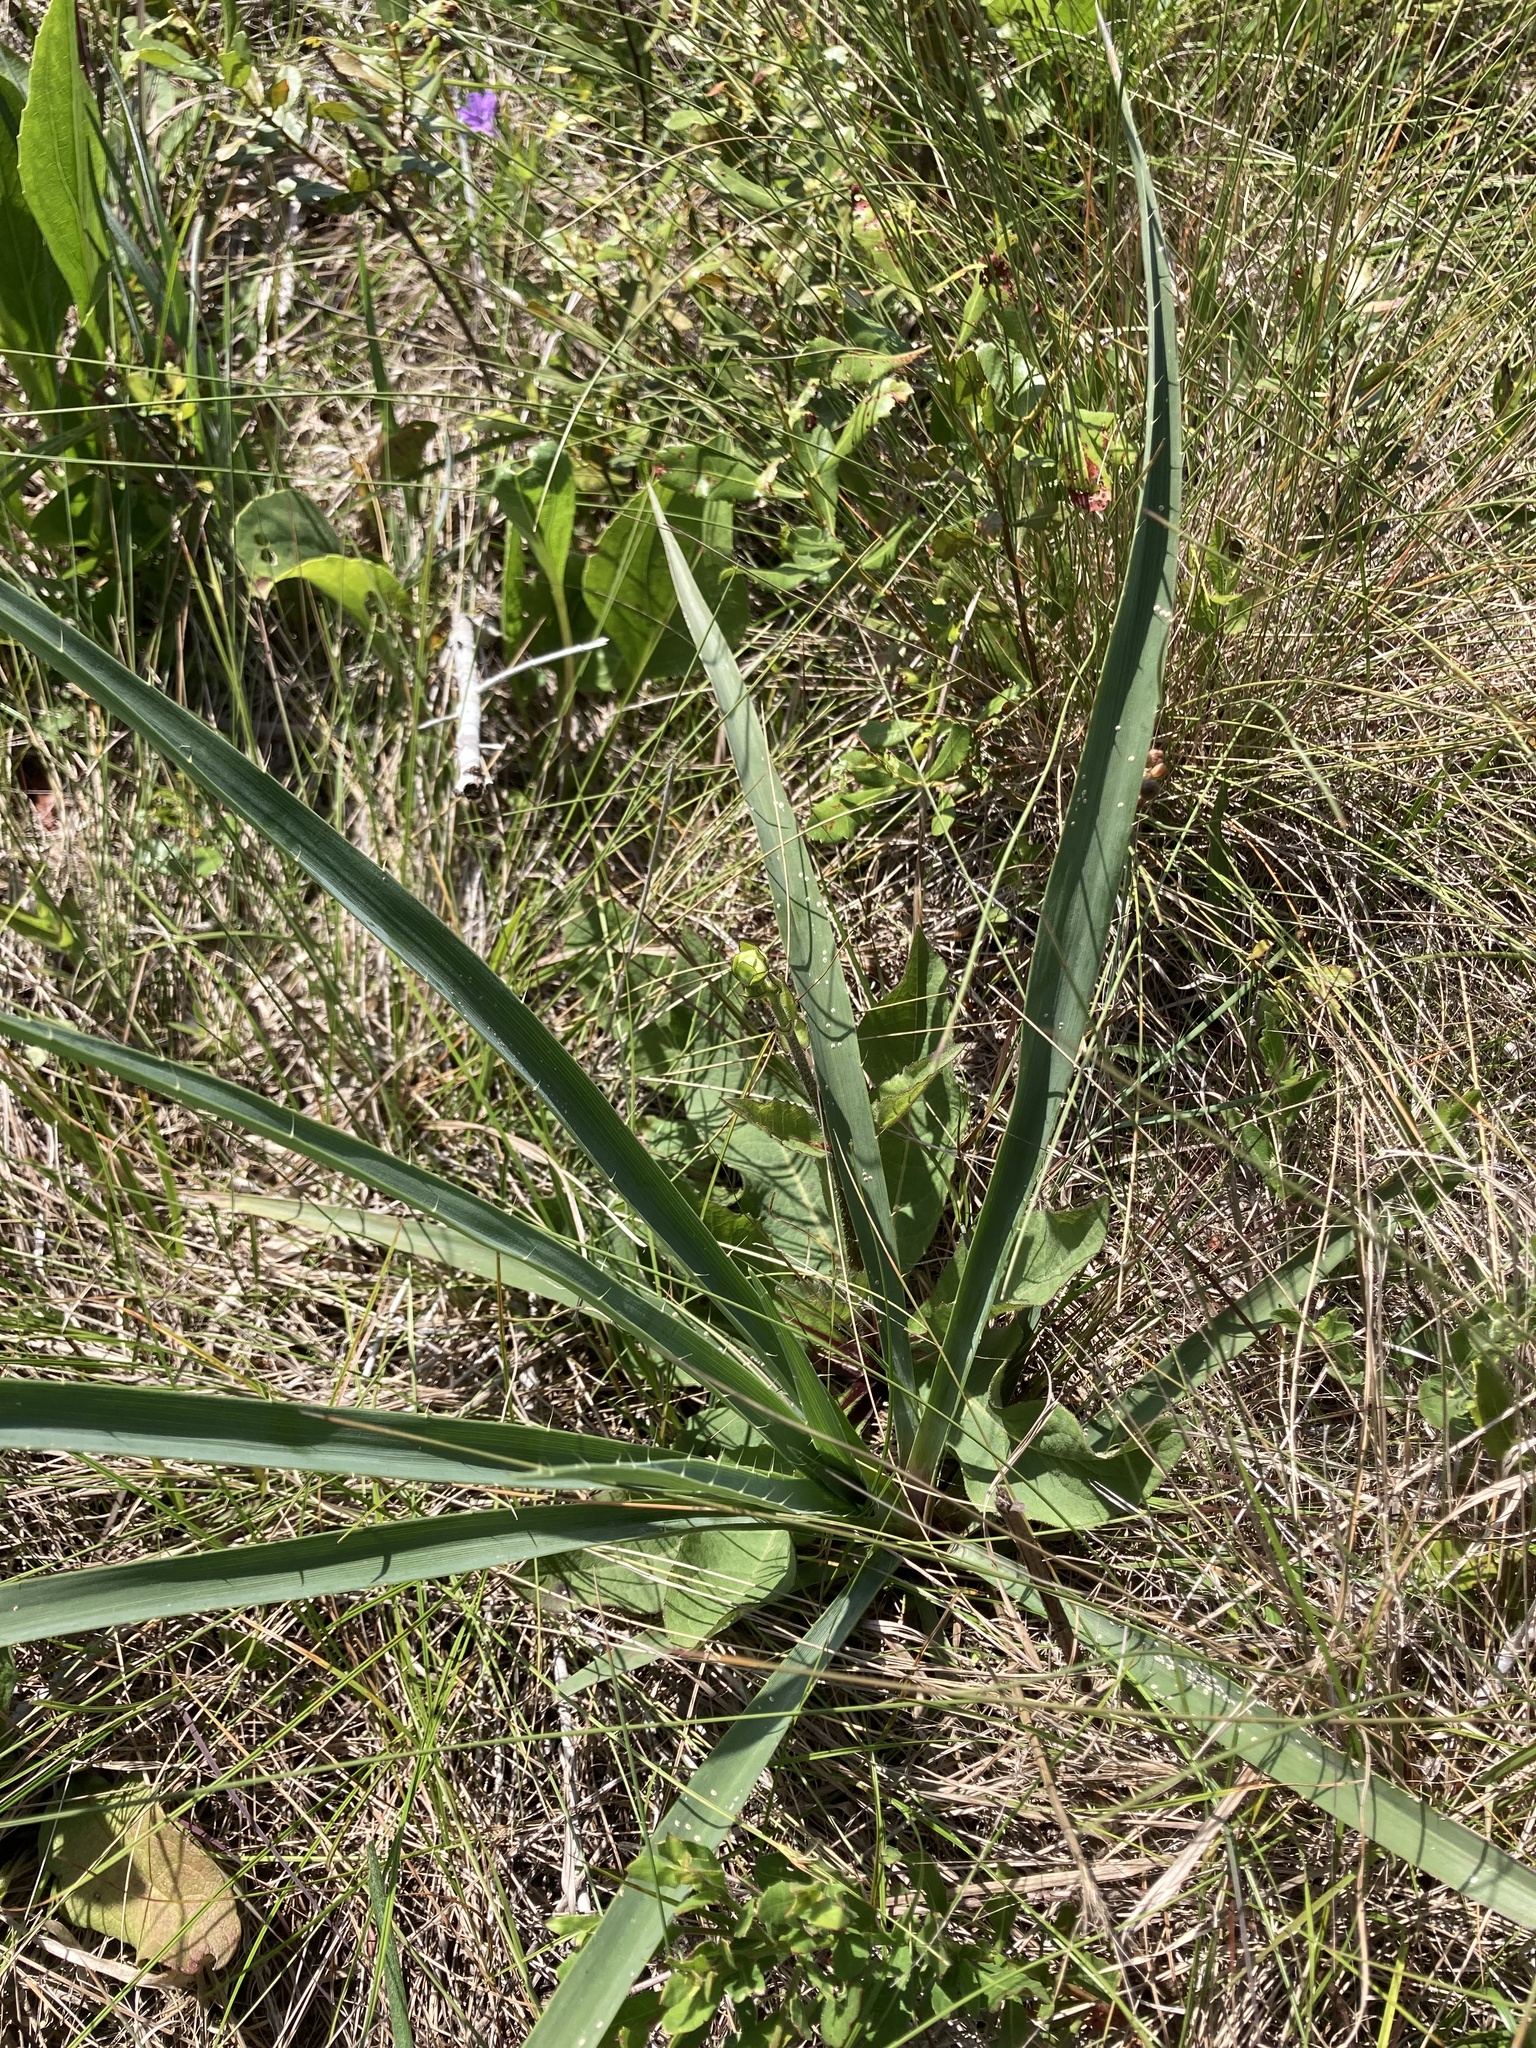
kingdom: Plantae
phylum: Tracheophyta
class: Magnoliopsida
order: Apiales
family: Apiaceae
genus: Eryngium
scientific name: Eryngium yuccifolium
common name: Button eryngo
